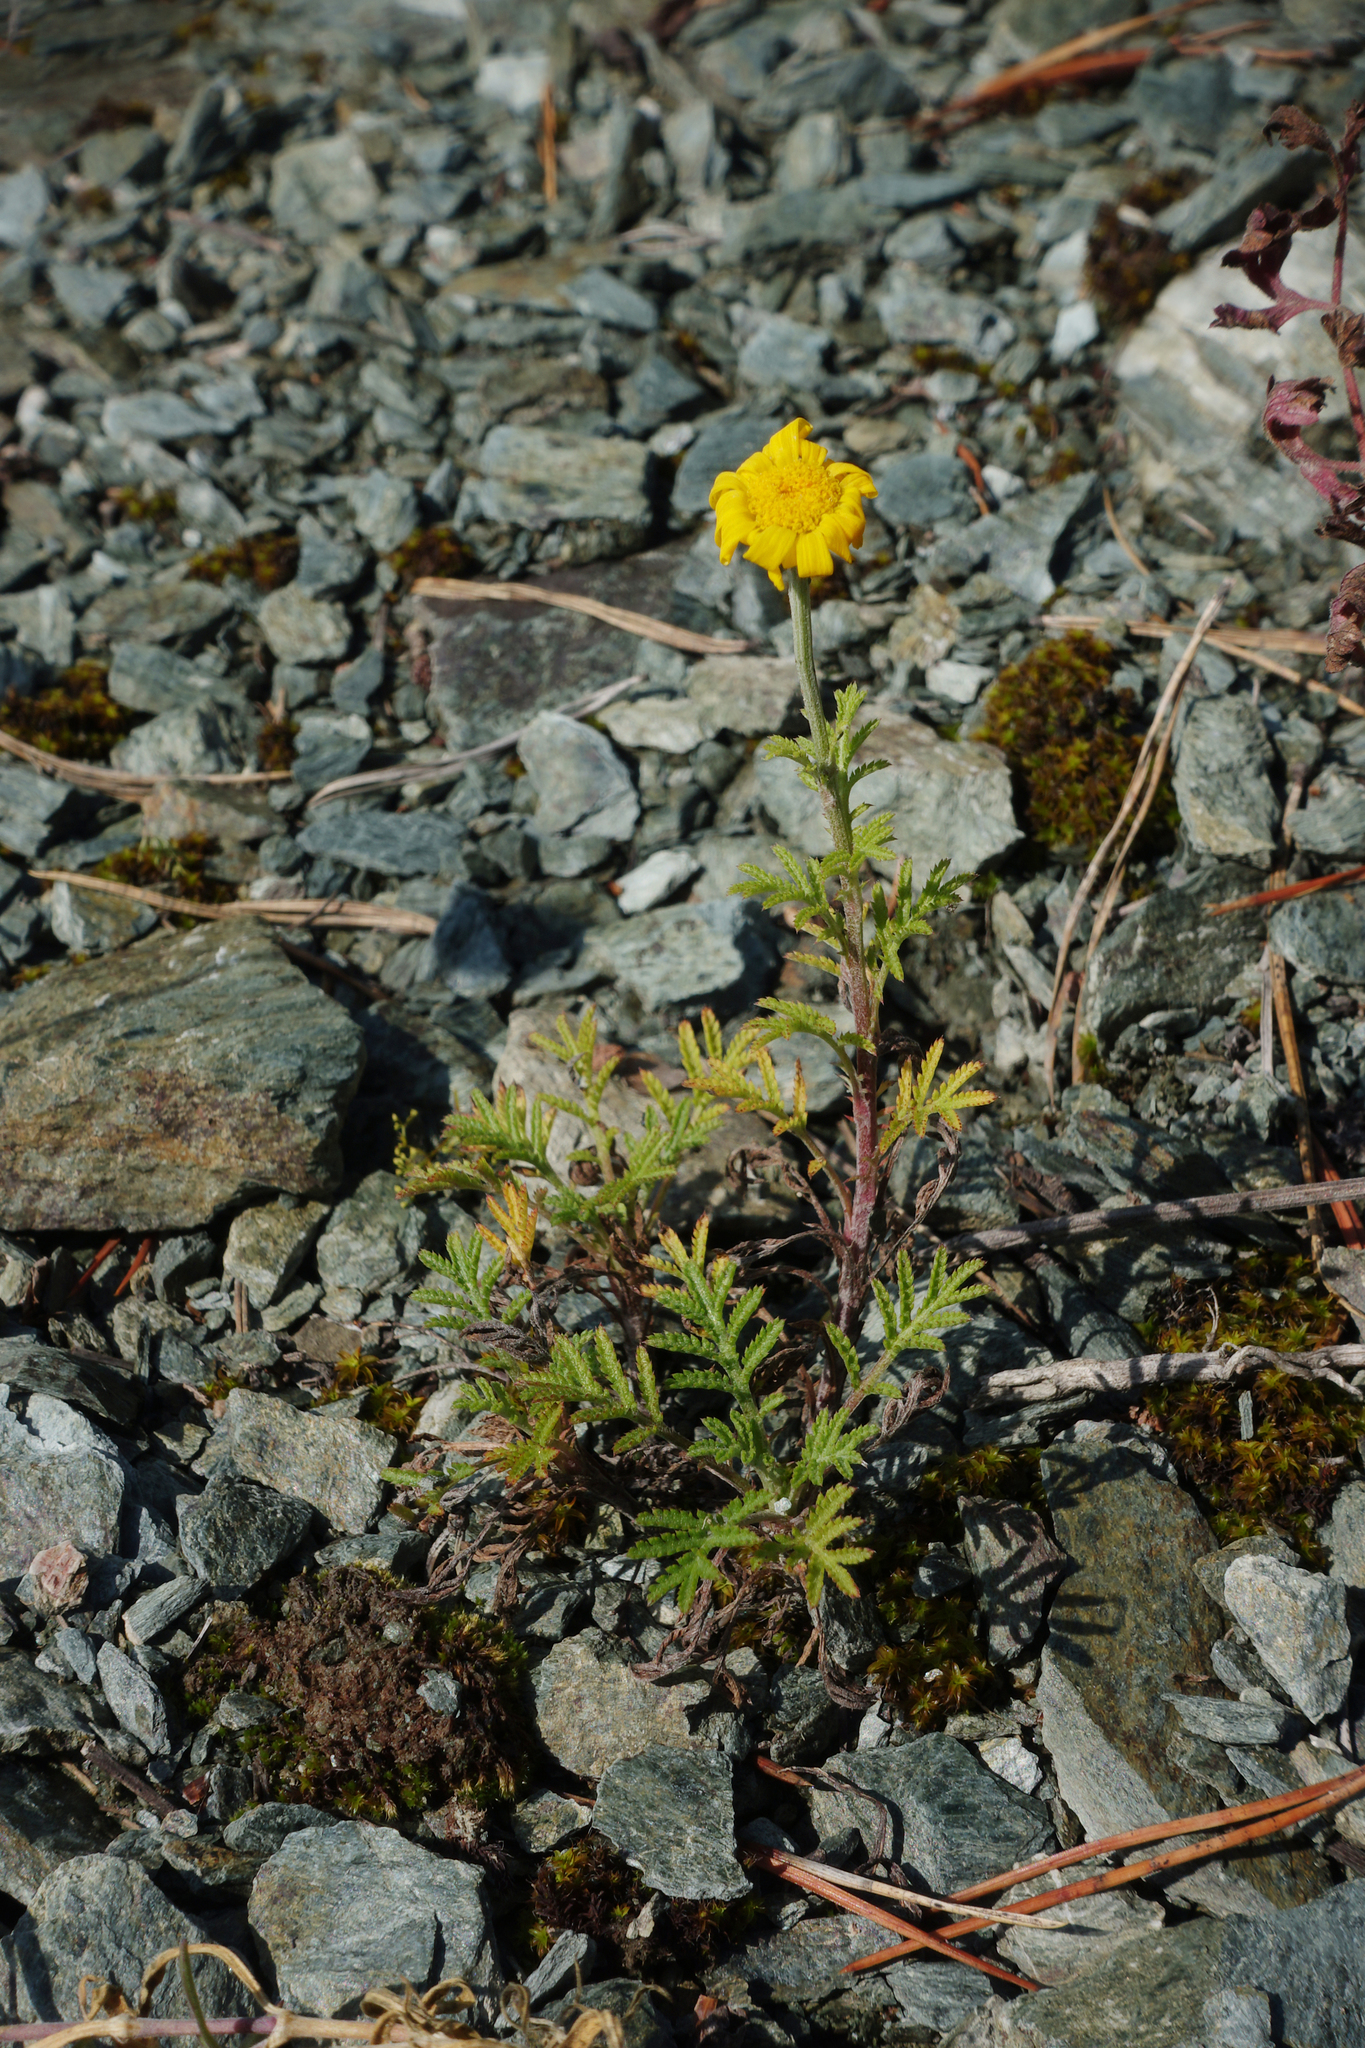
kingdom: Plantae
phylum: Tracheophyta
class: Magnoliopsida
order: Asterales
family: Asteraceae
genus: Cota
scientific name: Cota tinctoria
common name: Golden chamomile
